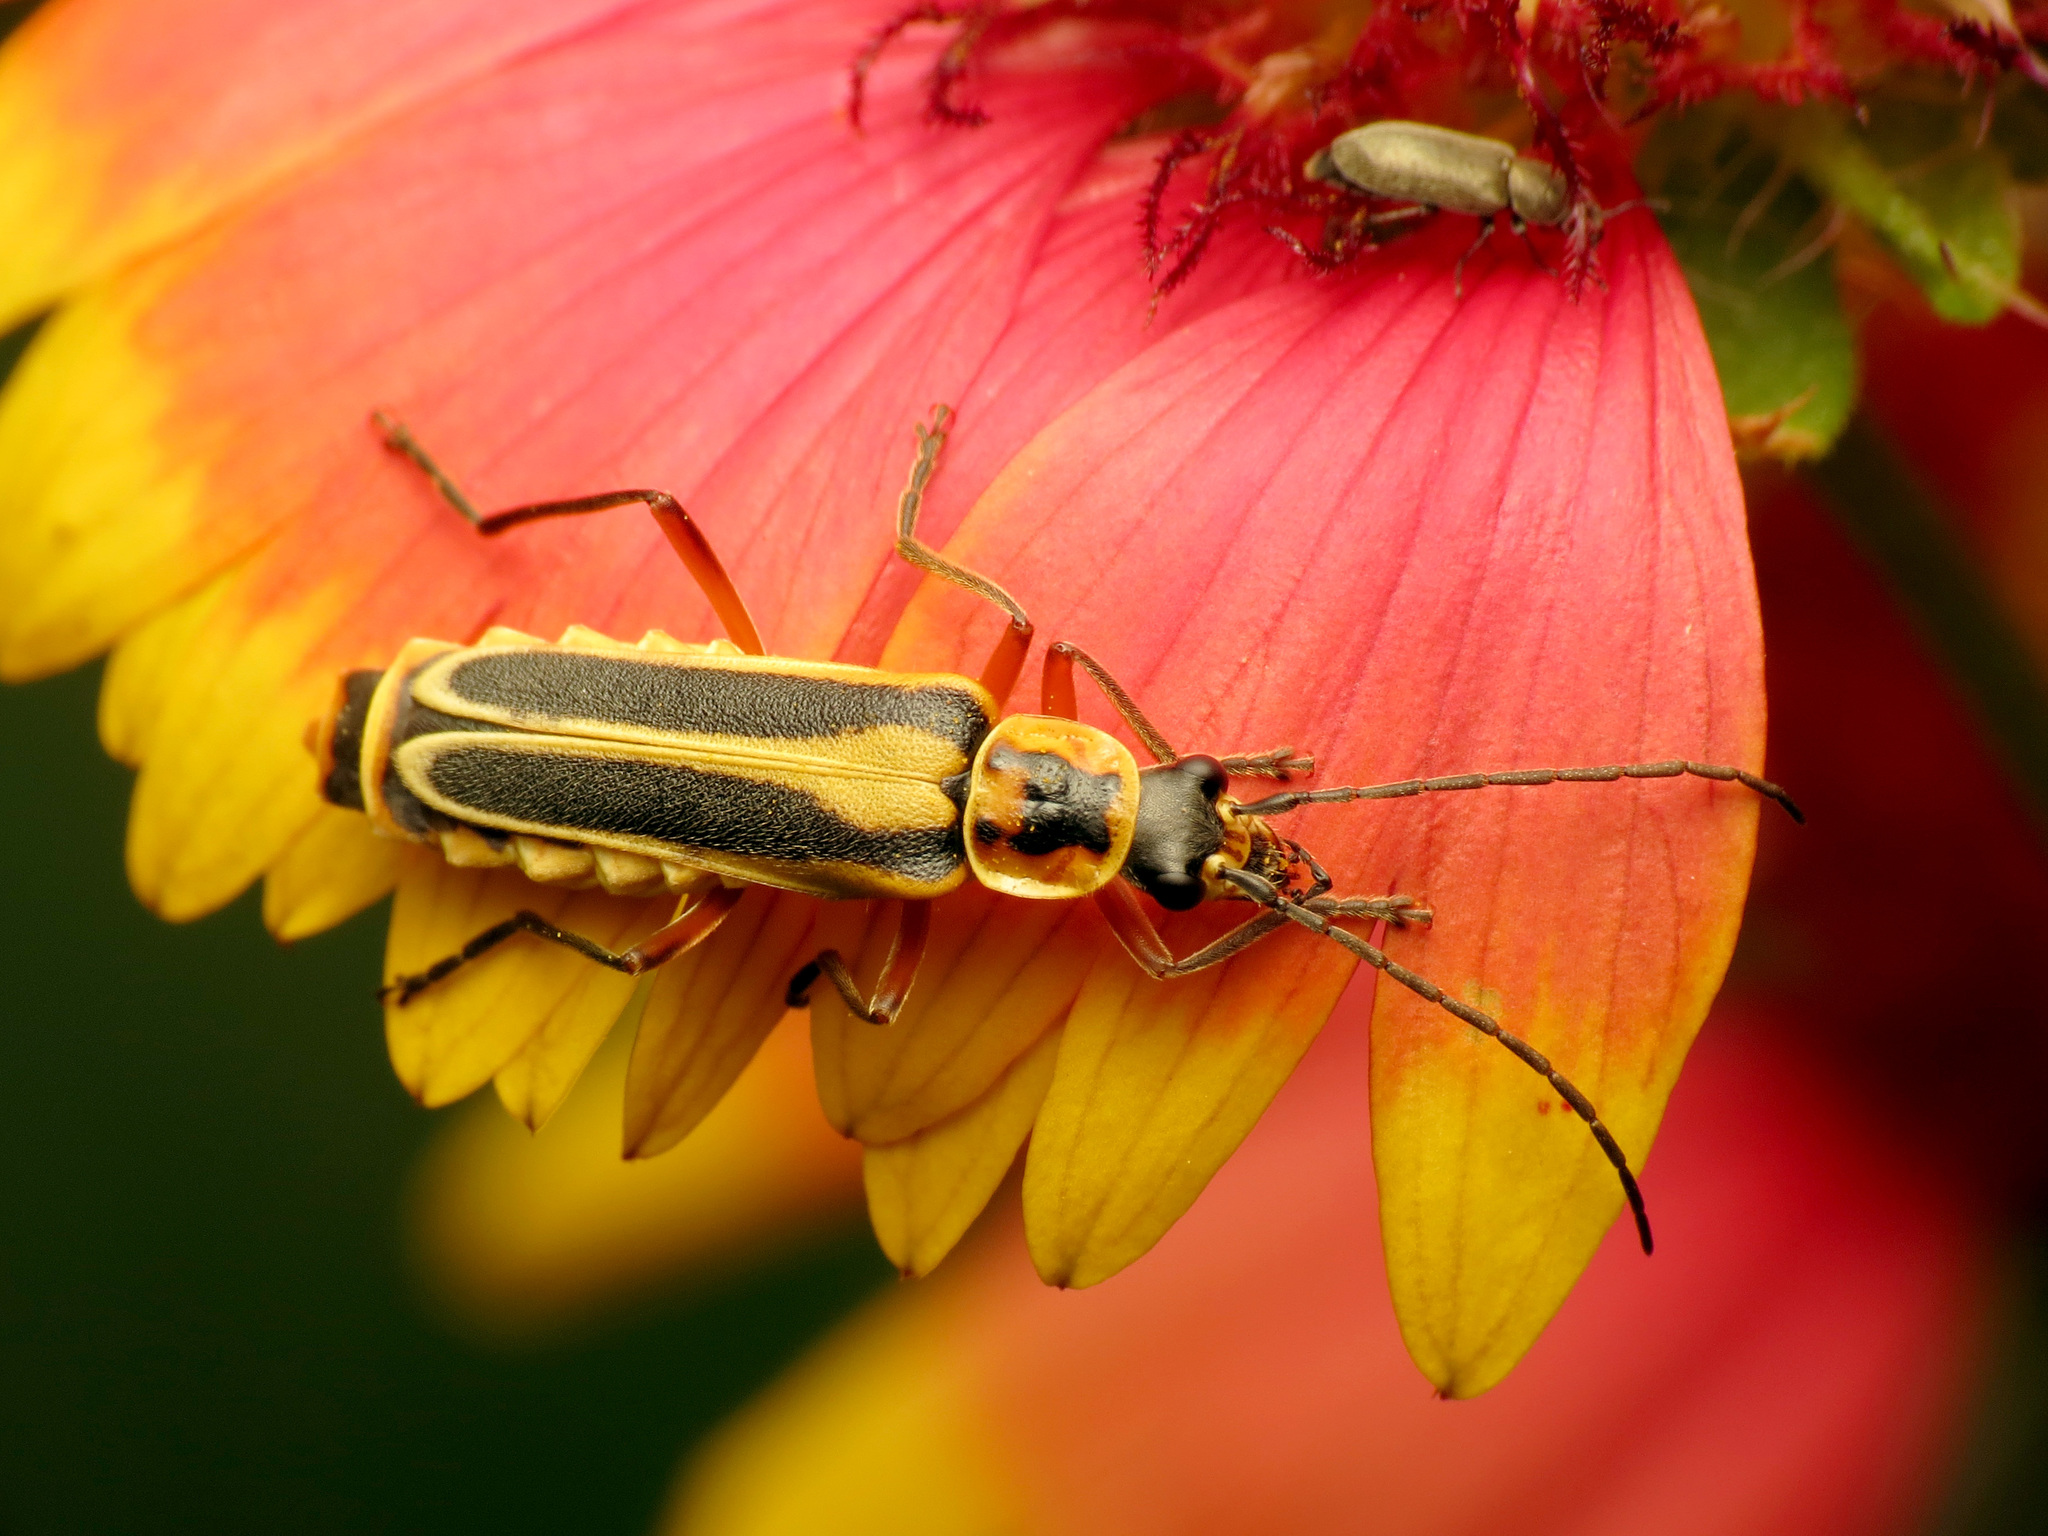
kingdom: Animalia
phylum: Arthropoda
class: Insecta
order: Coleoptera
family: Cantharidae
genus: Chauliognathus
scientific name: Chauliognathus lewisi
